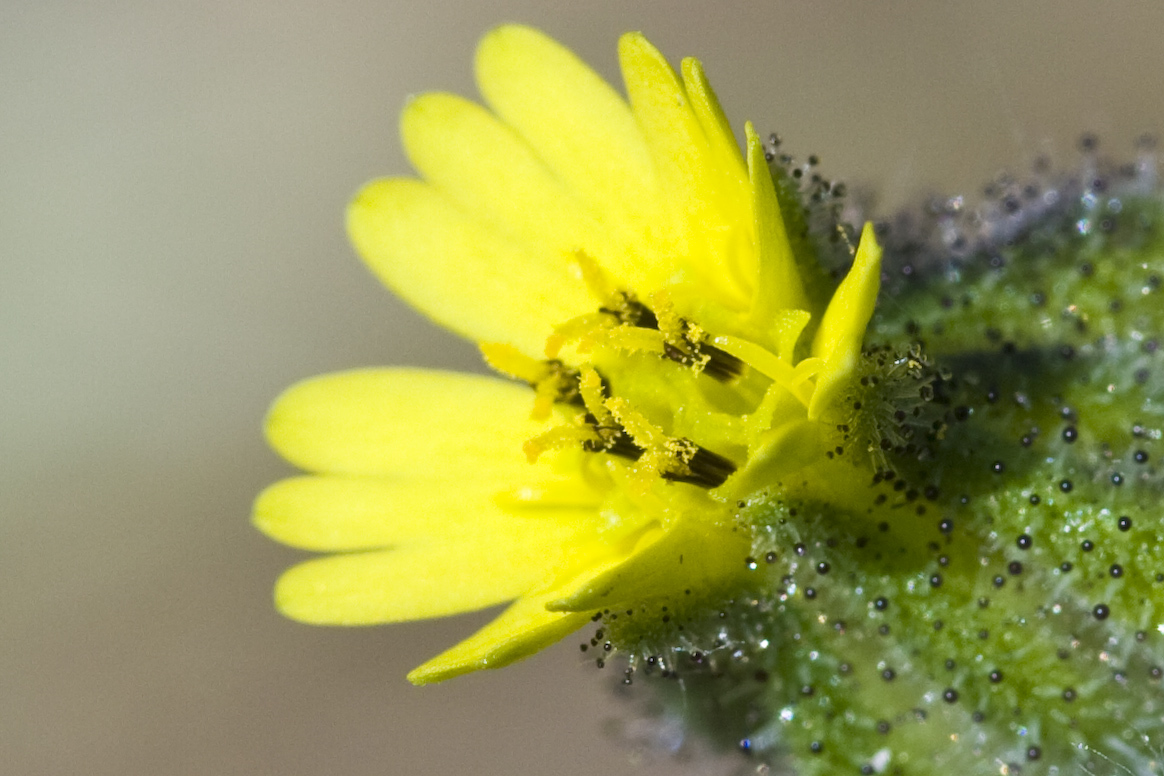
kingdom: Plantae
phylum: Tracheophyta
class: Magnoliopsida
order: Asterales
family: Asteraceae
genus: Madia
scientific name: Madia gracilis
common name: Grassy tarweed
